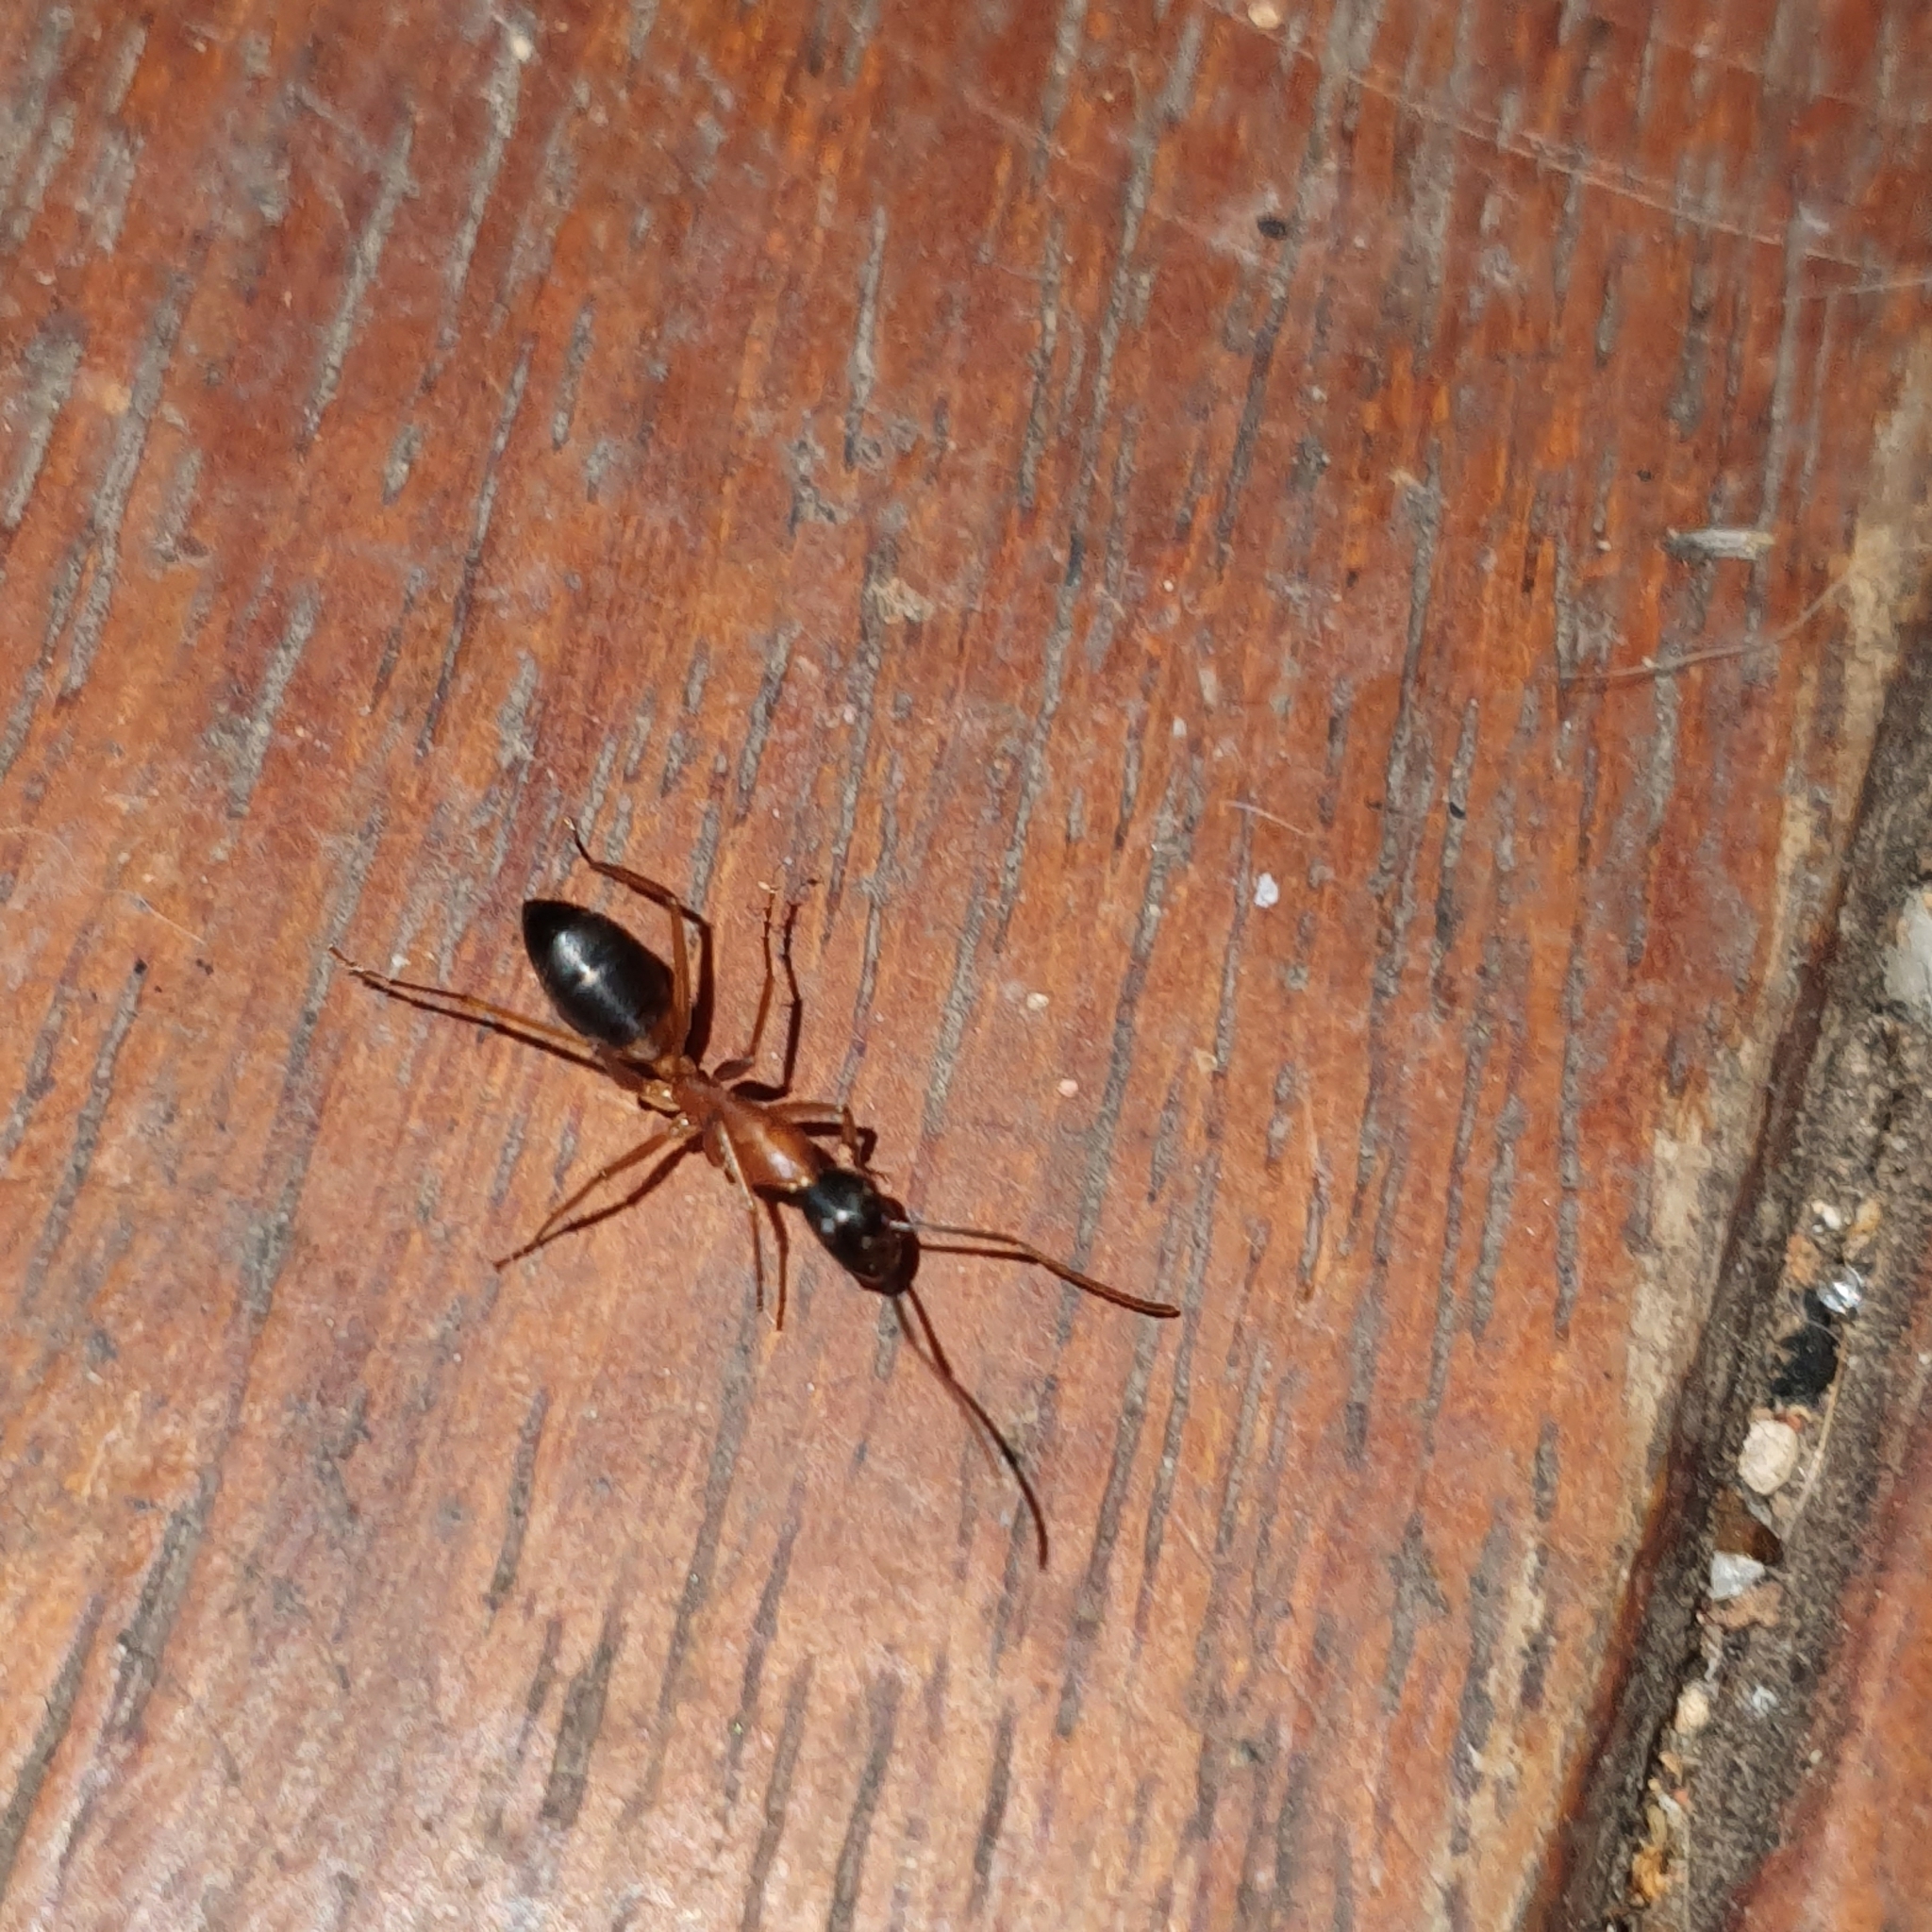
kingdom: Animalia
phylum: Arthropoda
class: Insecta
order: Hymenoptera
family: Formicidae
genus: Camponotus
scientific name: Camponotus consobrinus
